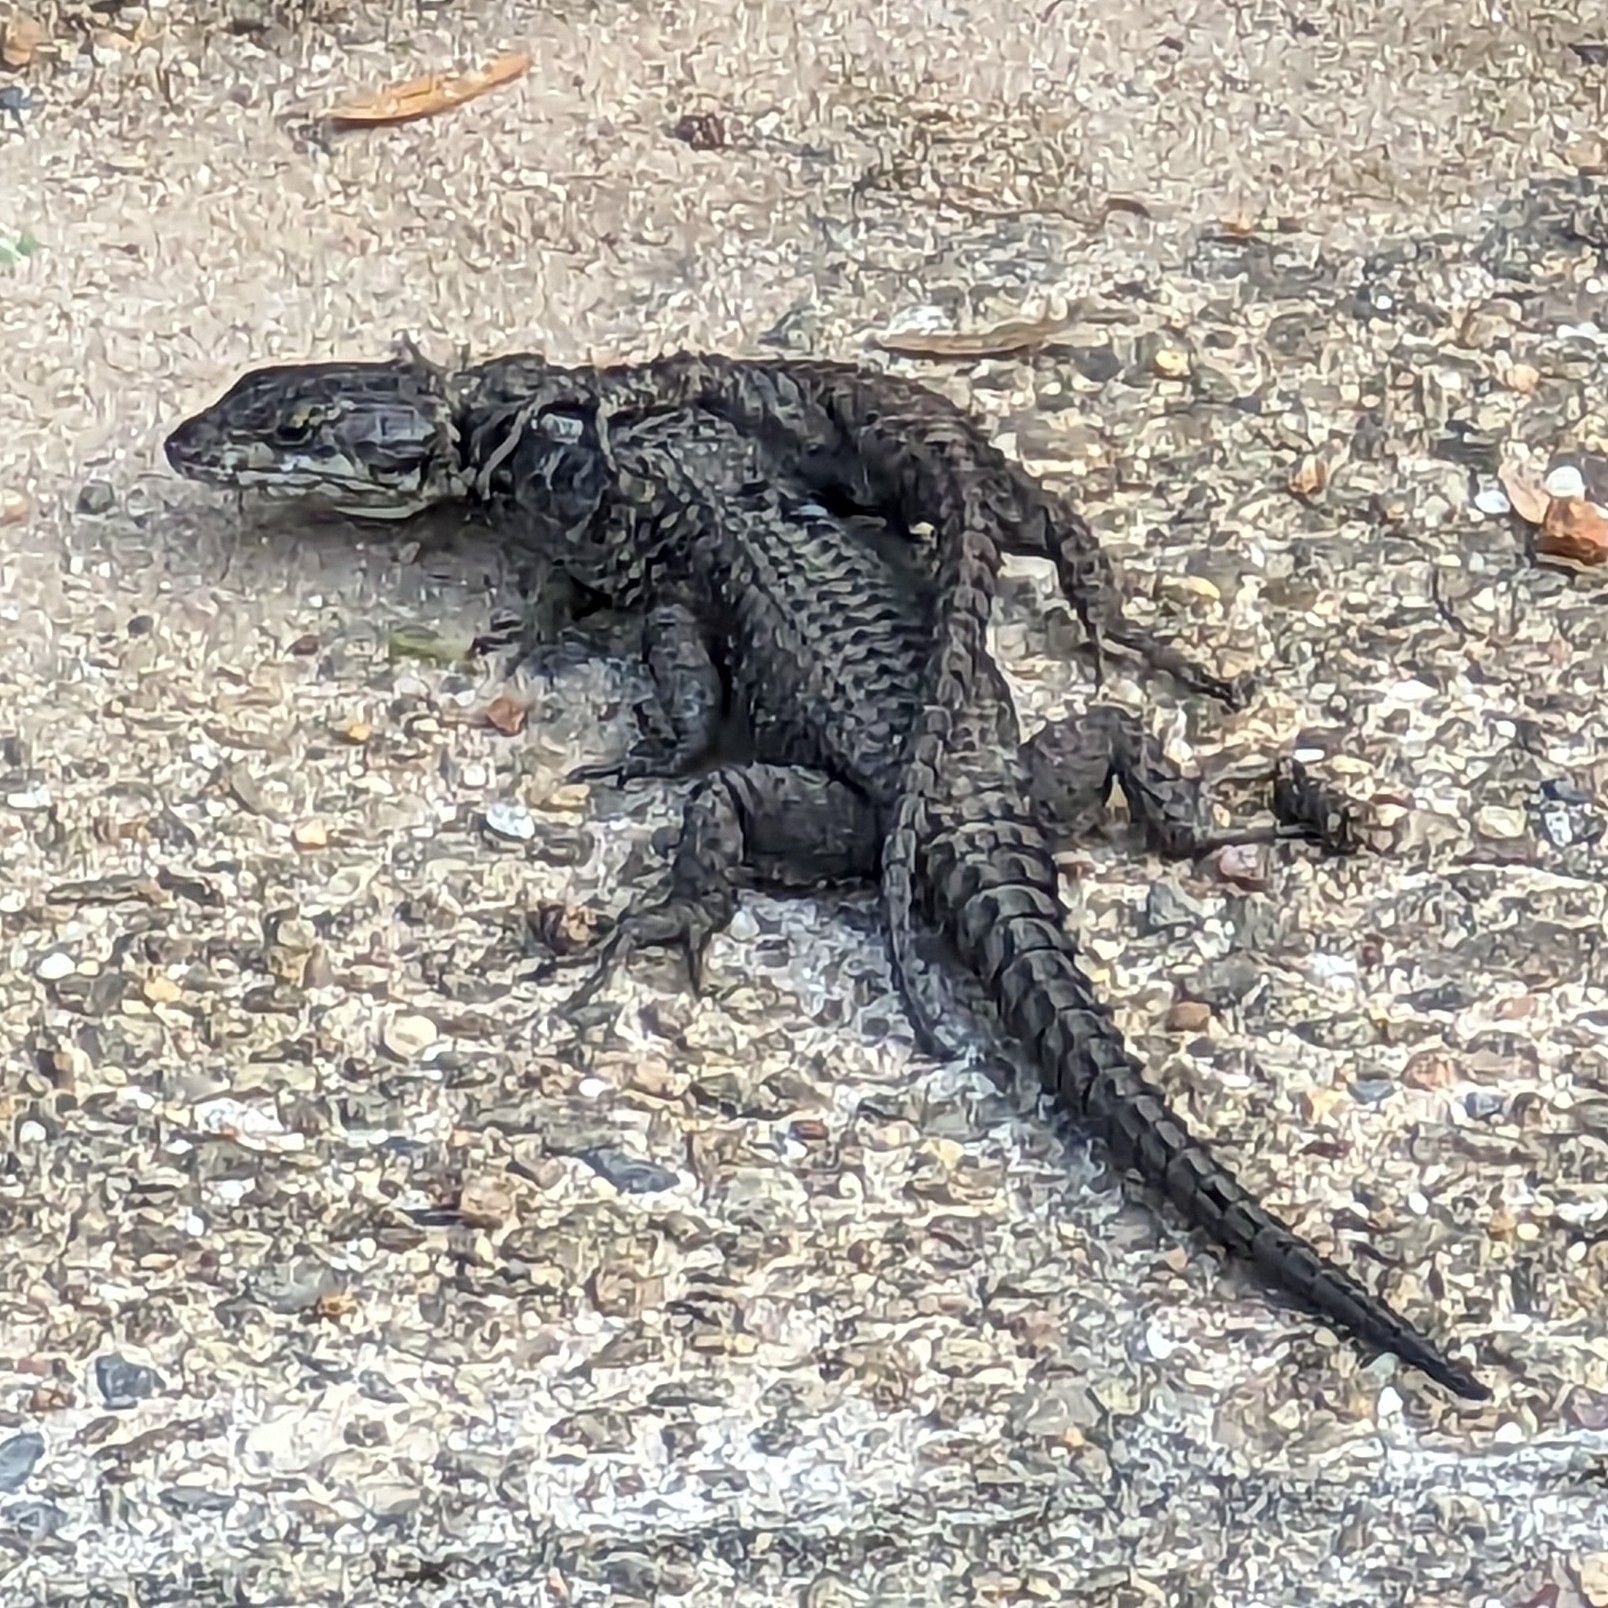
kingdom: Animalia
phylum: Chordata
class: Squamata
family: Cordylidae
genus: Cordylus
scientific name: Cordylus niger
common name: Black girdled lizard
